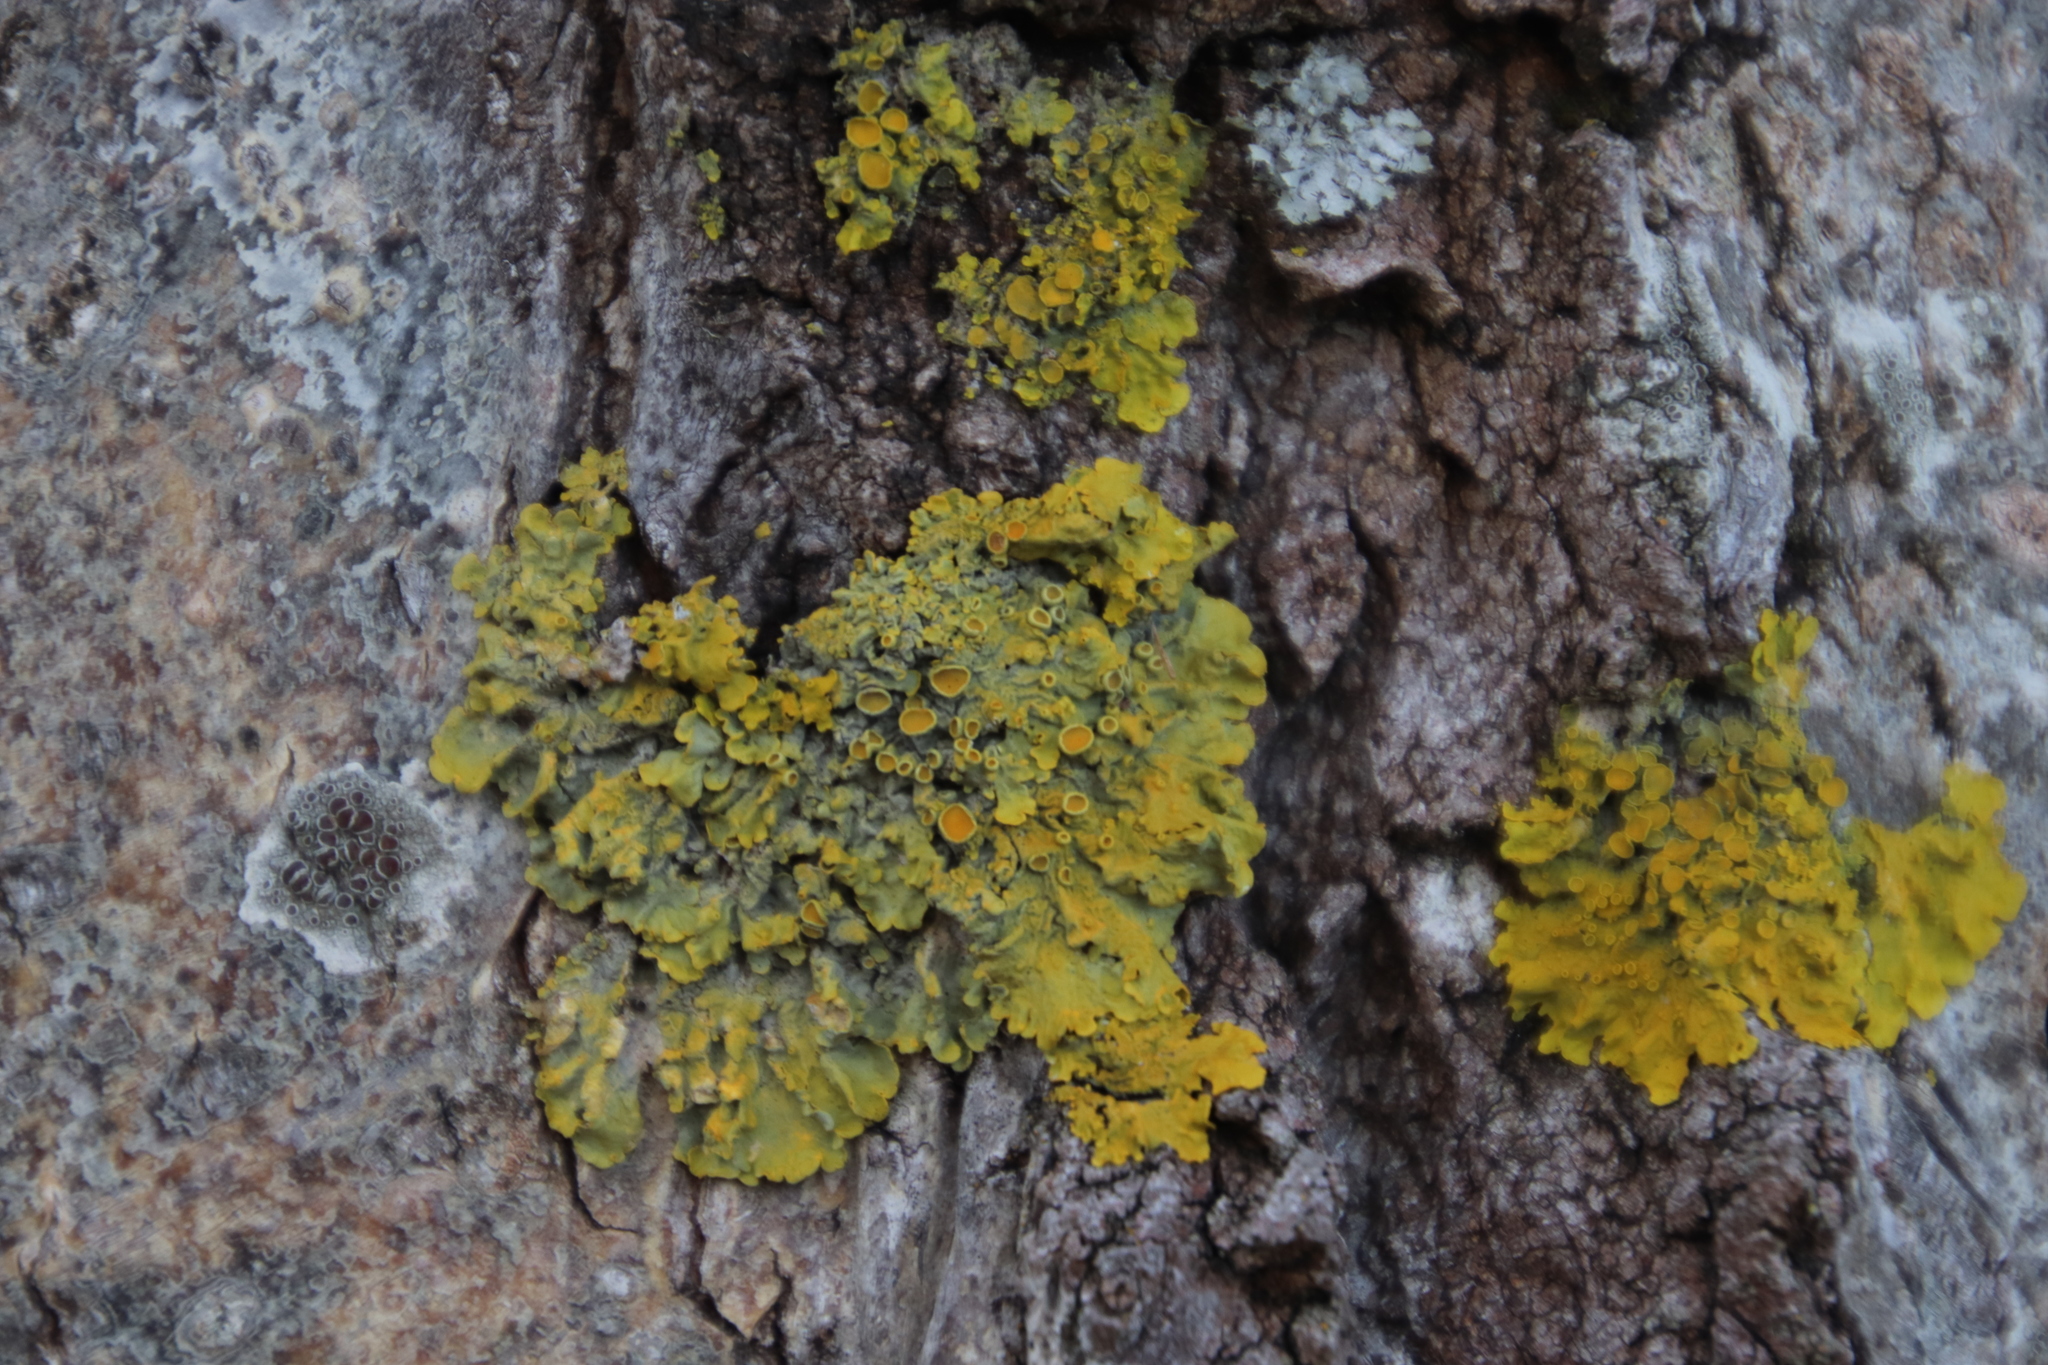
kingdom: Fungi
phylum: Ascomycota
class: Lecanoromycetes
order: Teloschistales
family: Teloschistaceae
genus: Xanthoria
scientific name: Xanthoria parietina
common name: Common orange lichen
